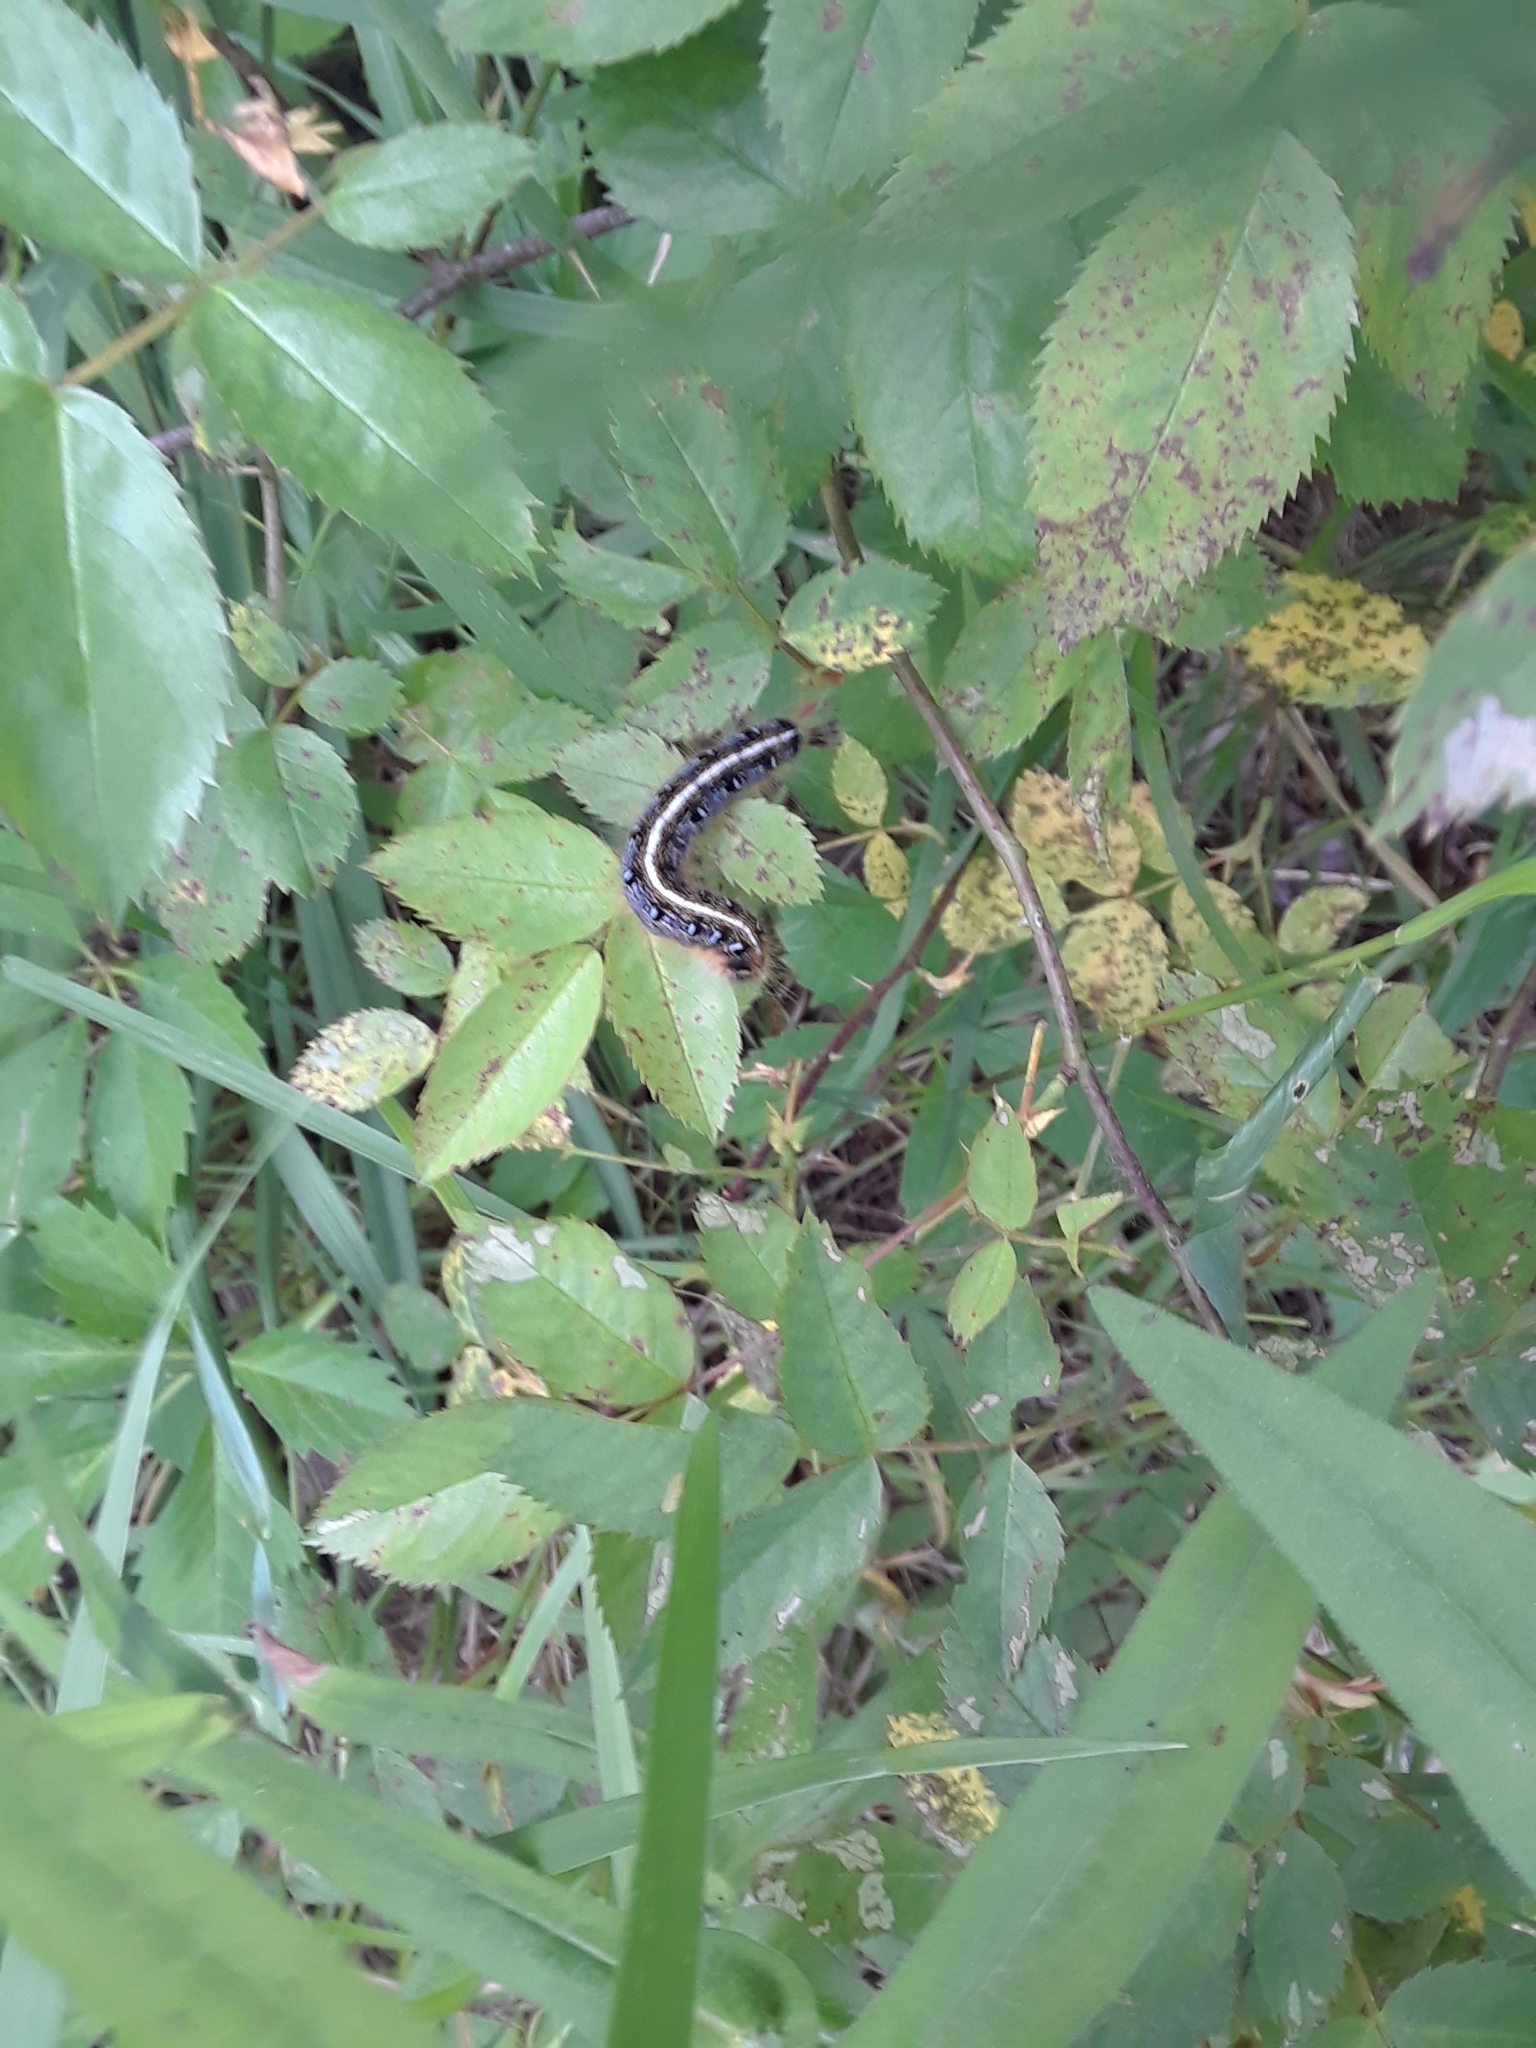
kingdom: Animalia
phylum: Arthropoda
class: Insecta
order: Lepidoptera
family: Lasiocampidae
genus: Malacosoma
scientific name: Malacosoma americana
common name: Eastern tent caterpillar moth
